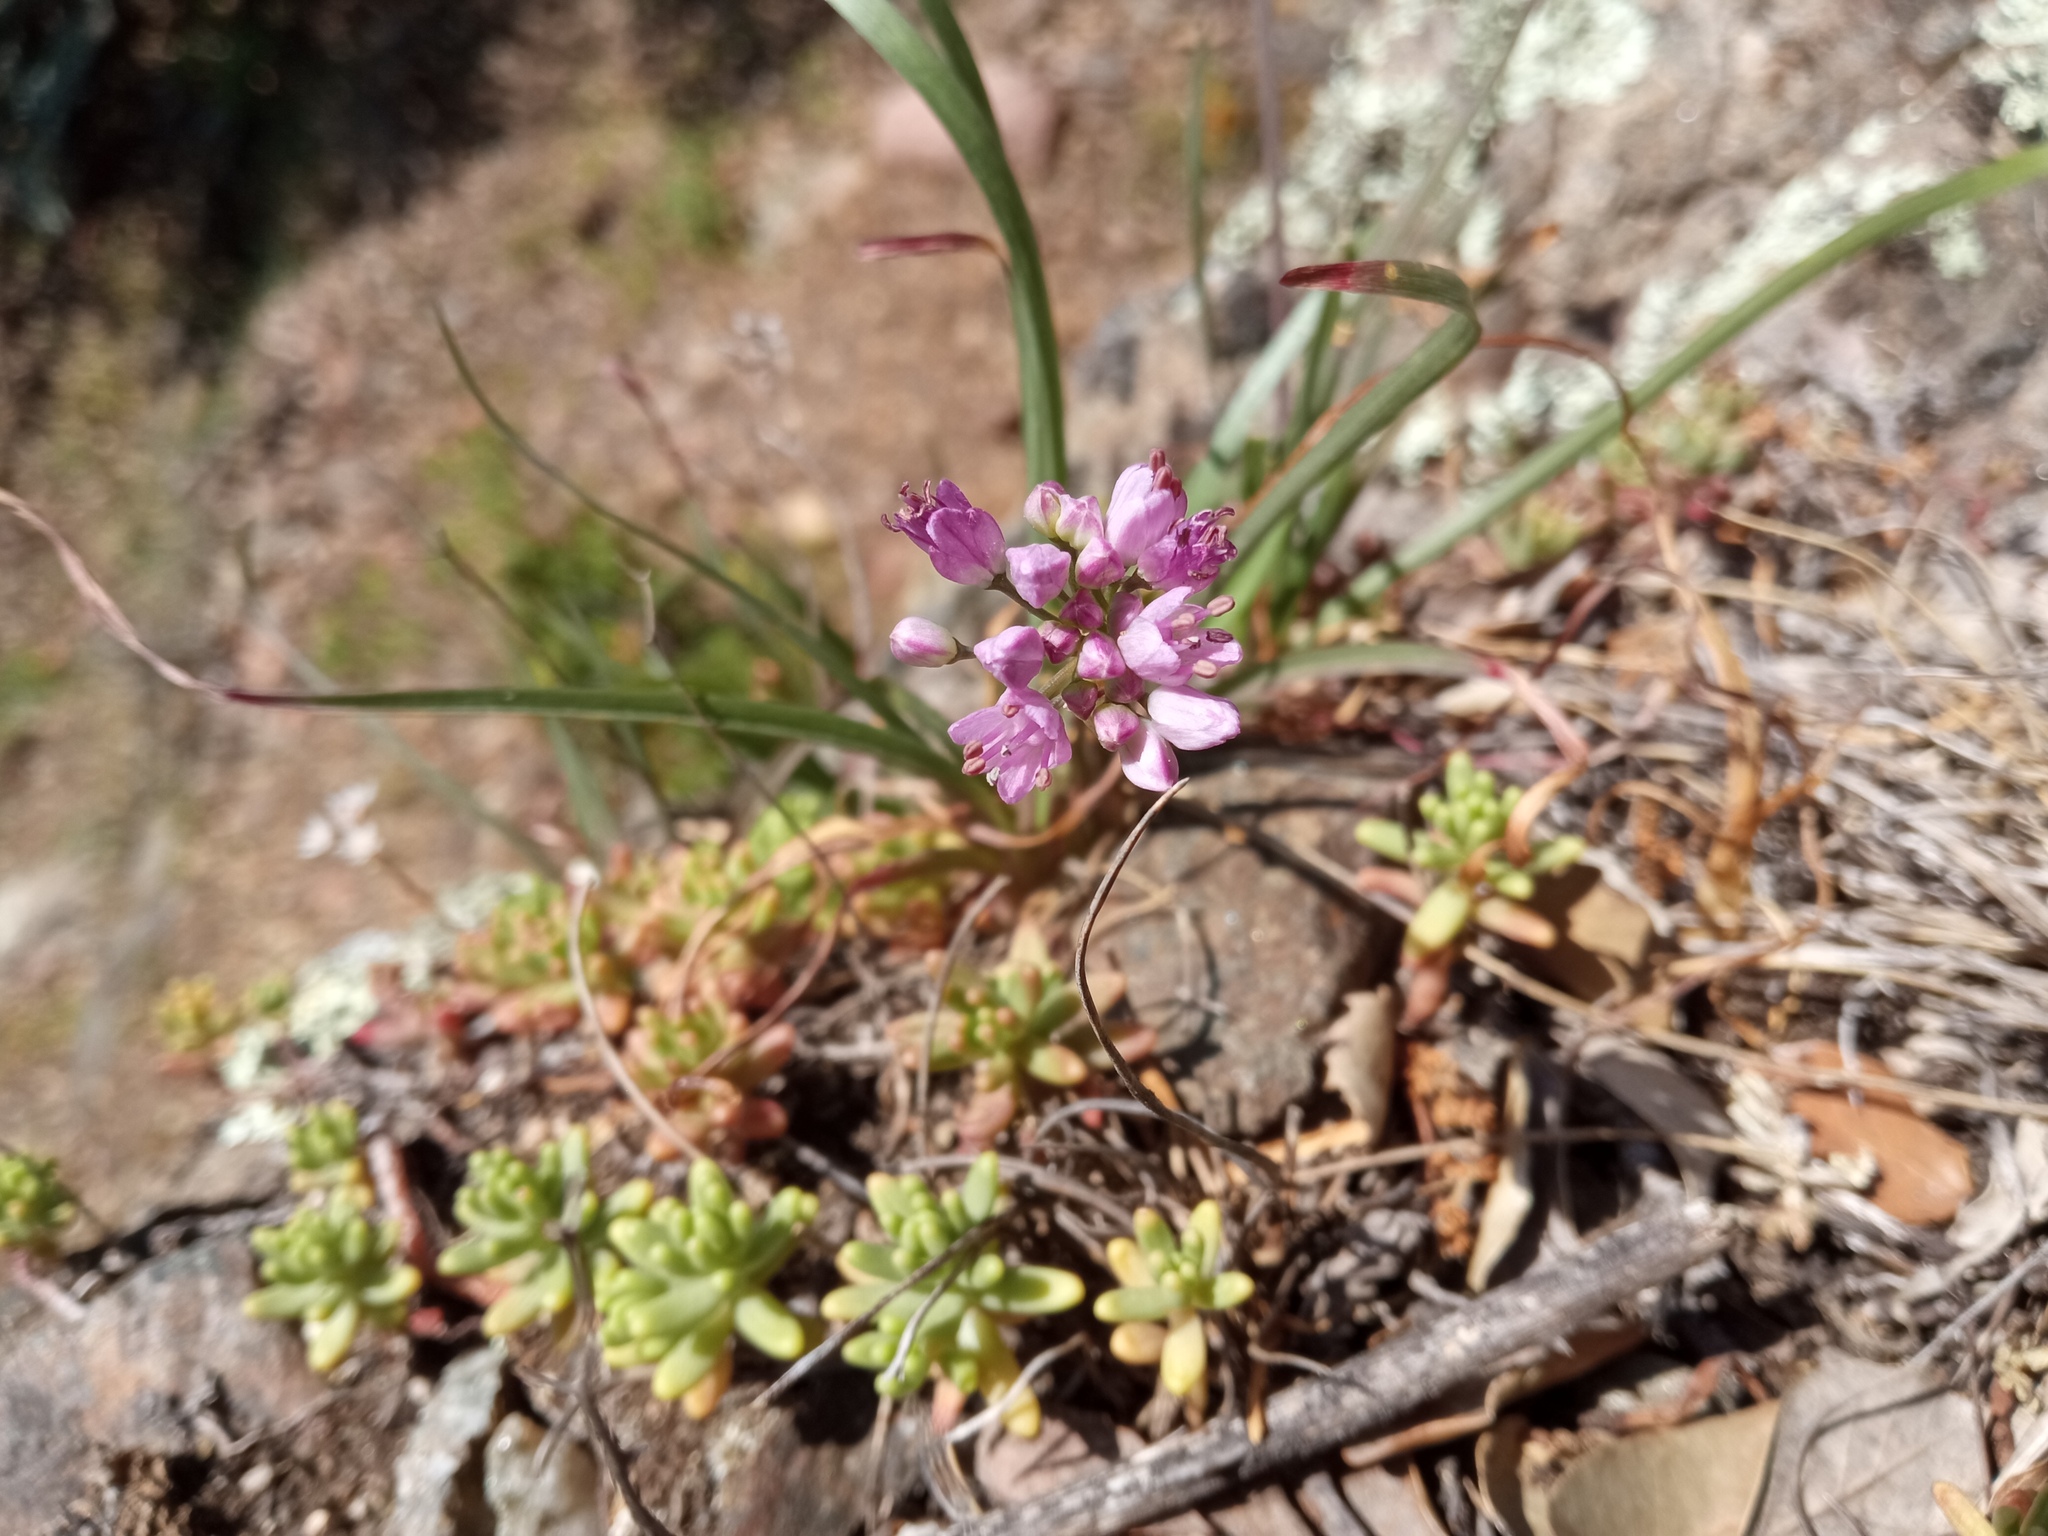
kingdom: Plantae
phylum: Tracheophyta
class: Liliopsida
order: Asparagales
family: Amaryllidaceae
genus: Allium
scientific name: Allium lusitanicum
